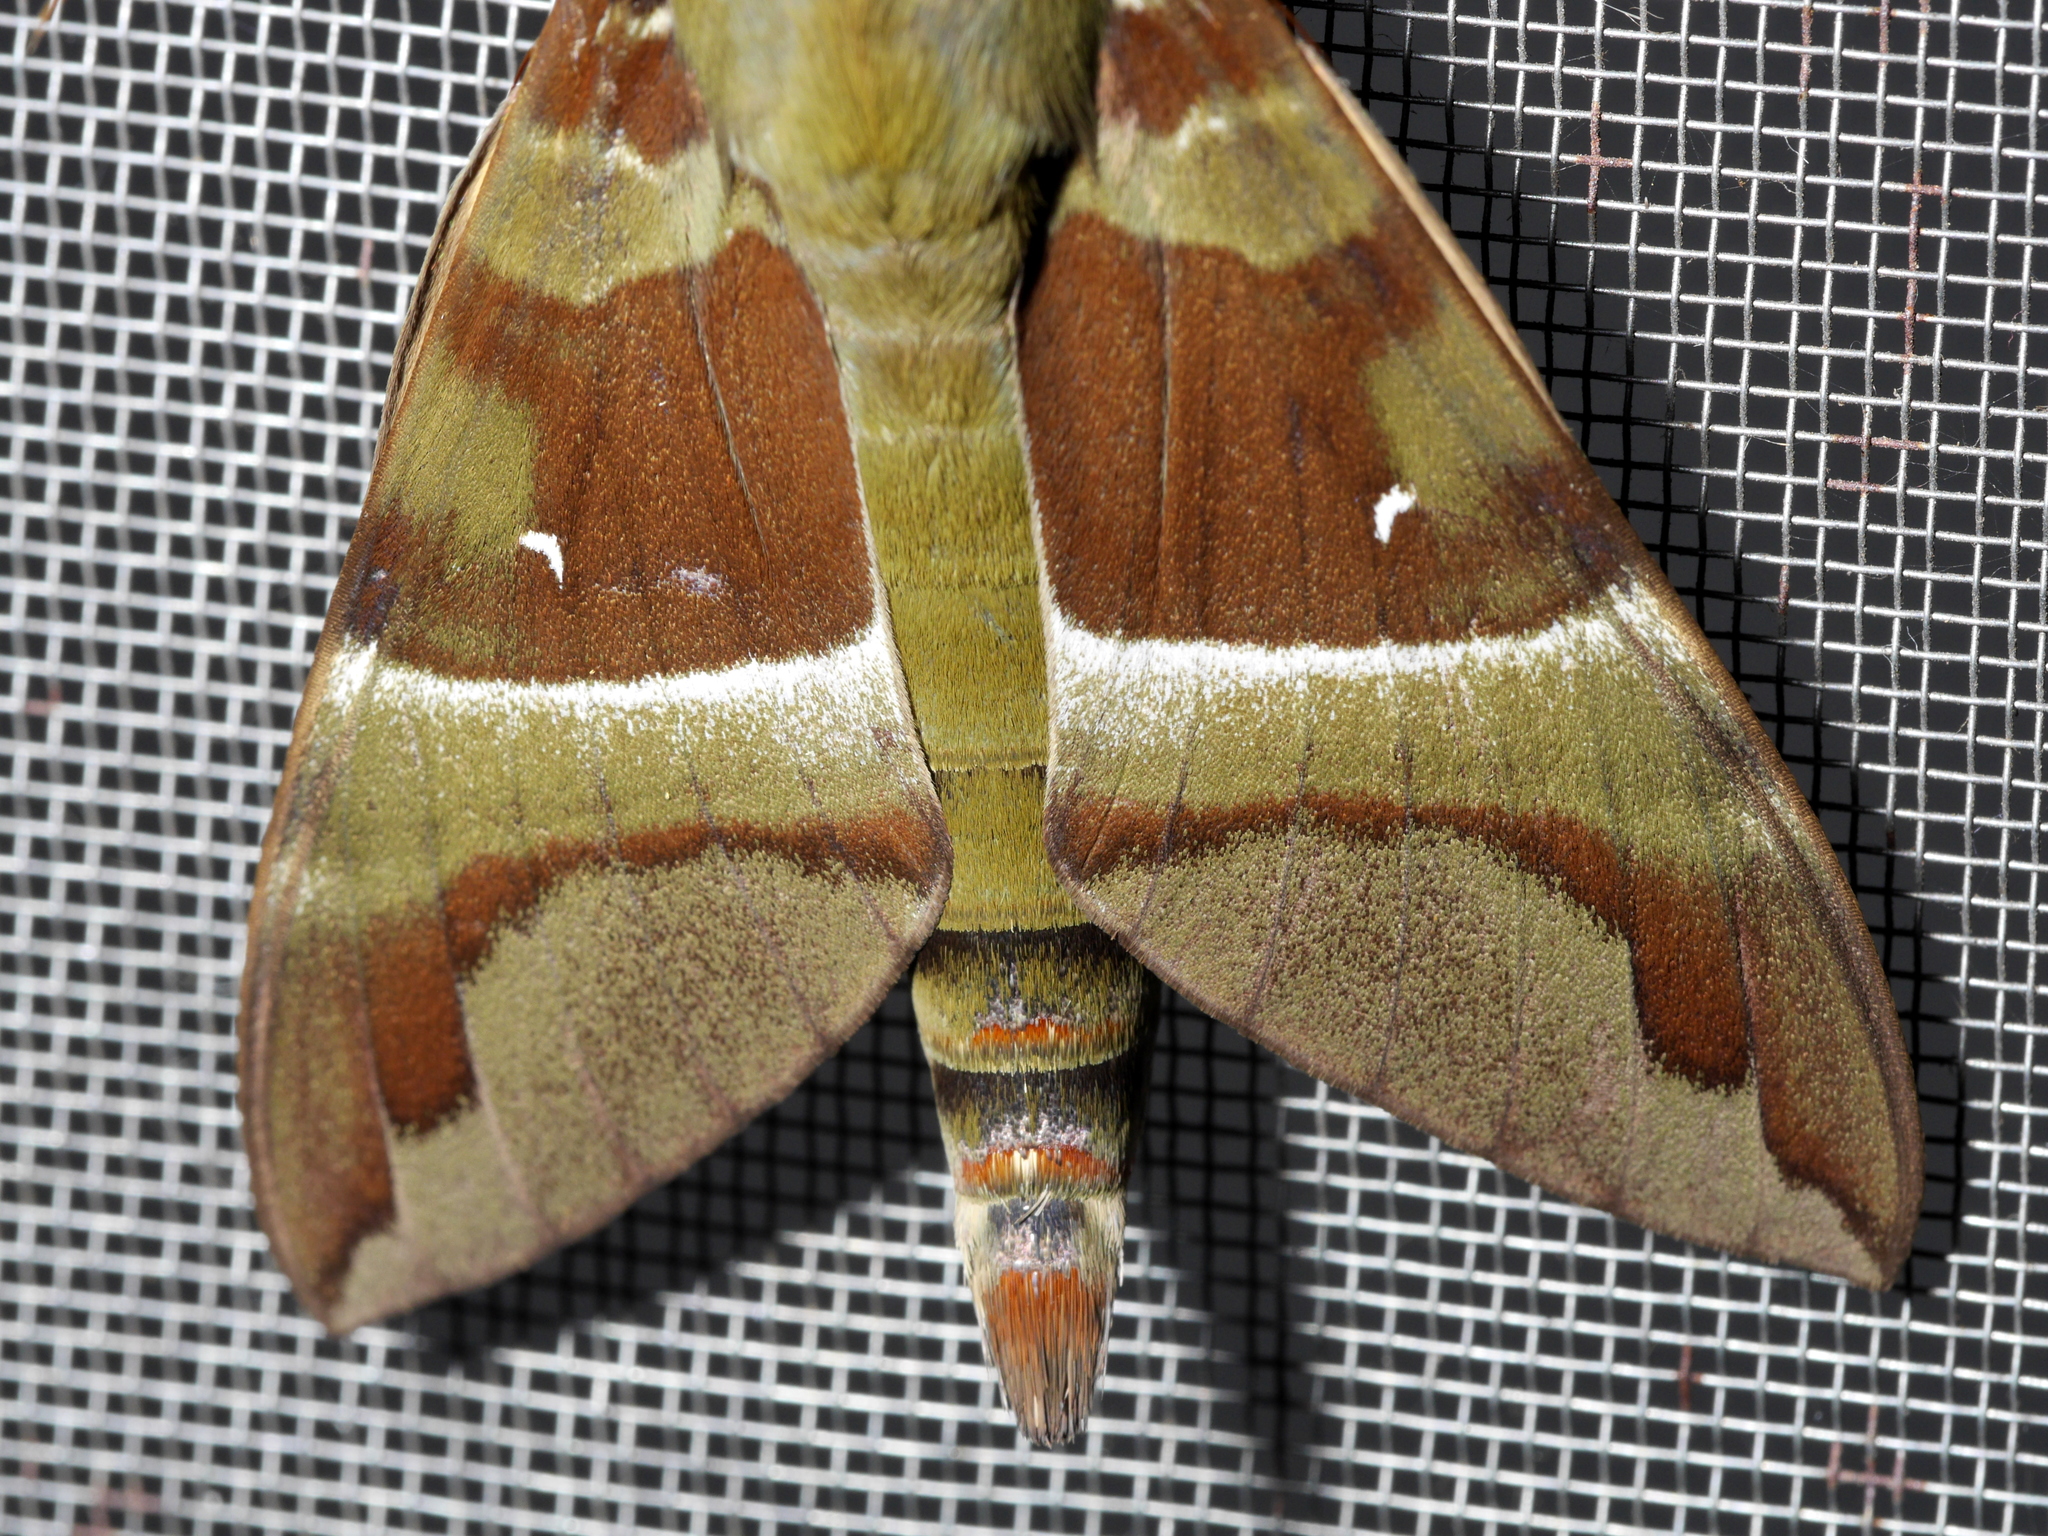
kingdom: Animalia
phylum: Arthropoda
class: Insecta
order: Lepidoptera
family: Sphingidae
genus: Nephele
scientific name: Nephele rosae
